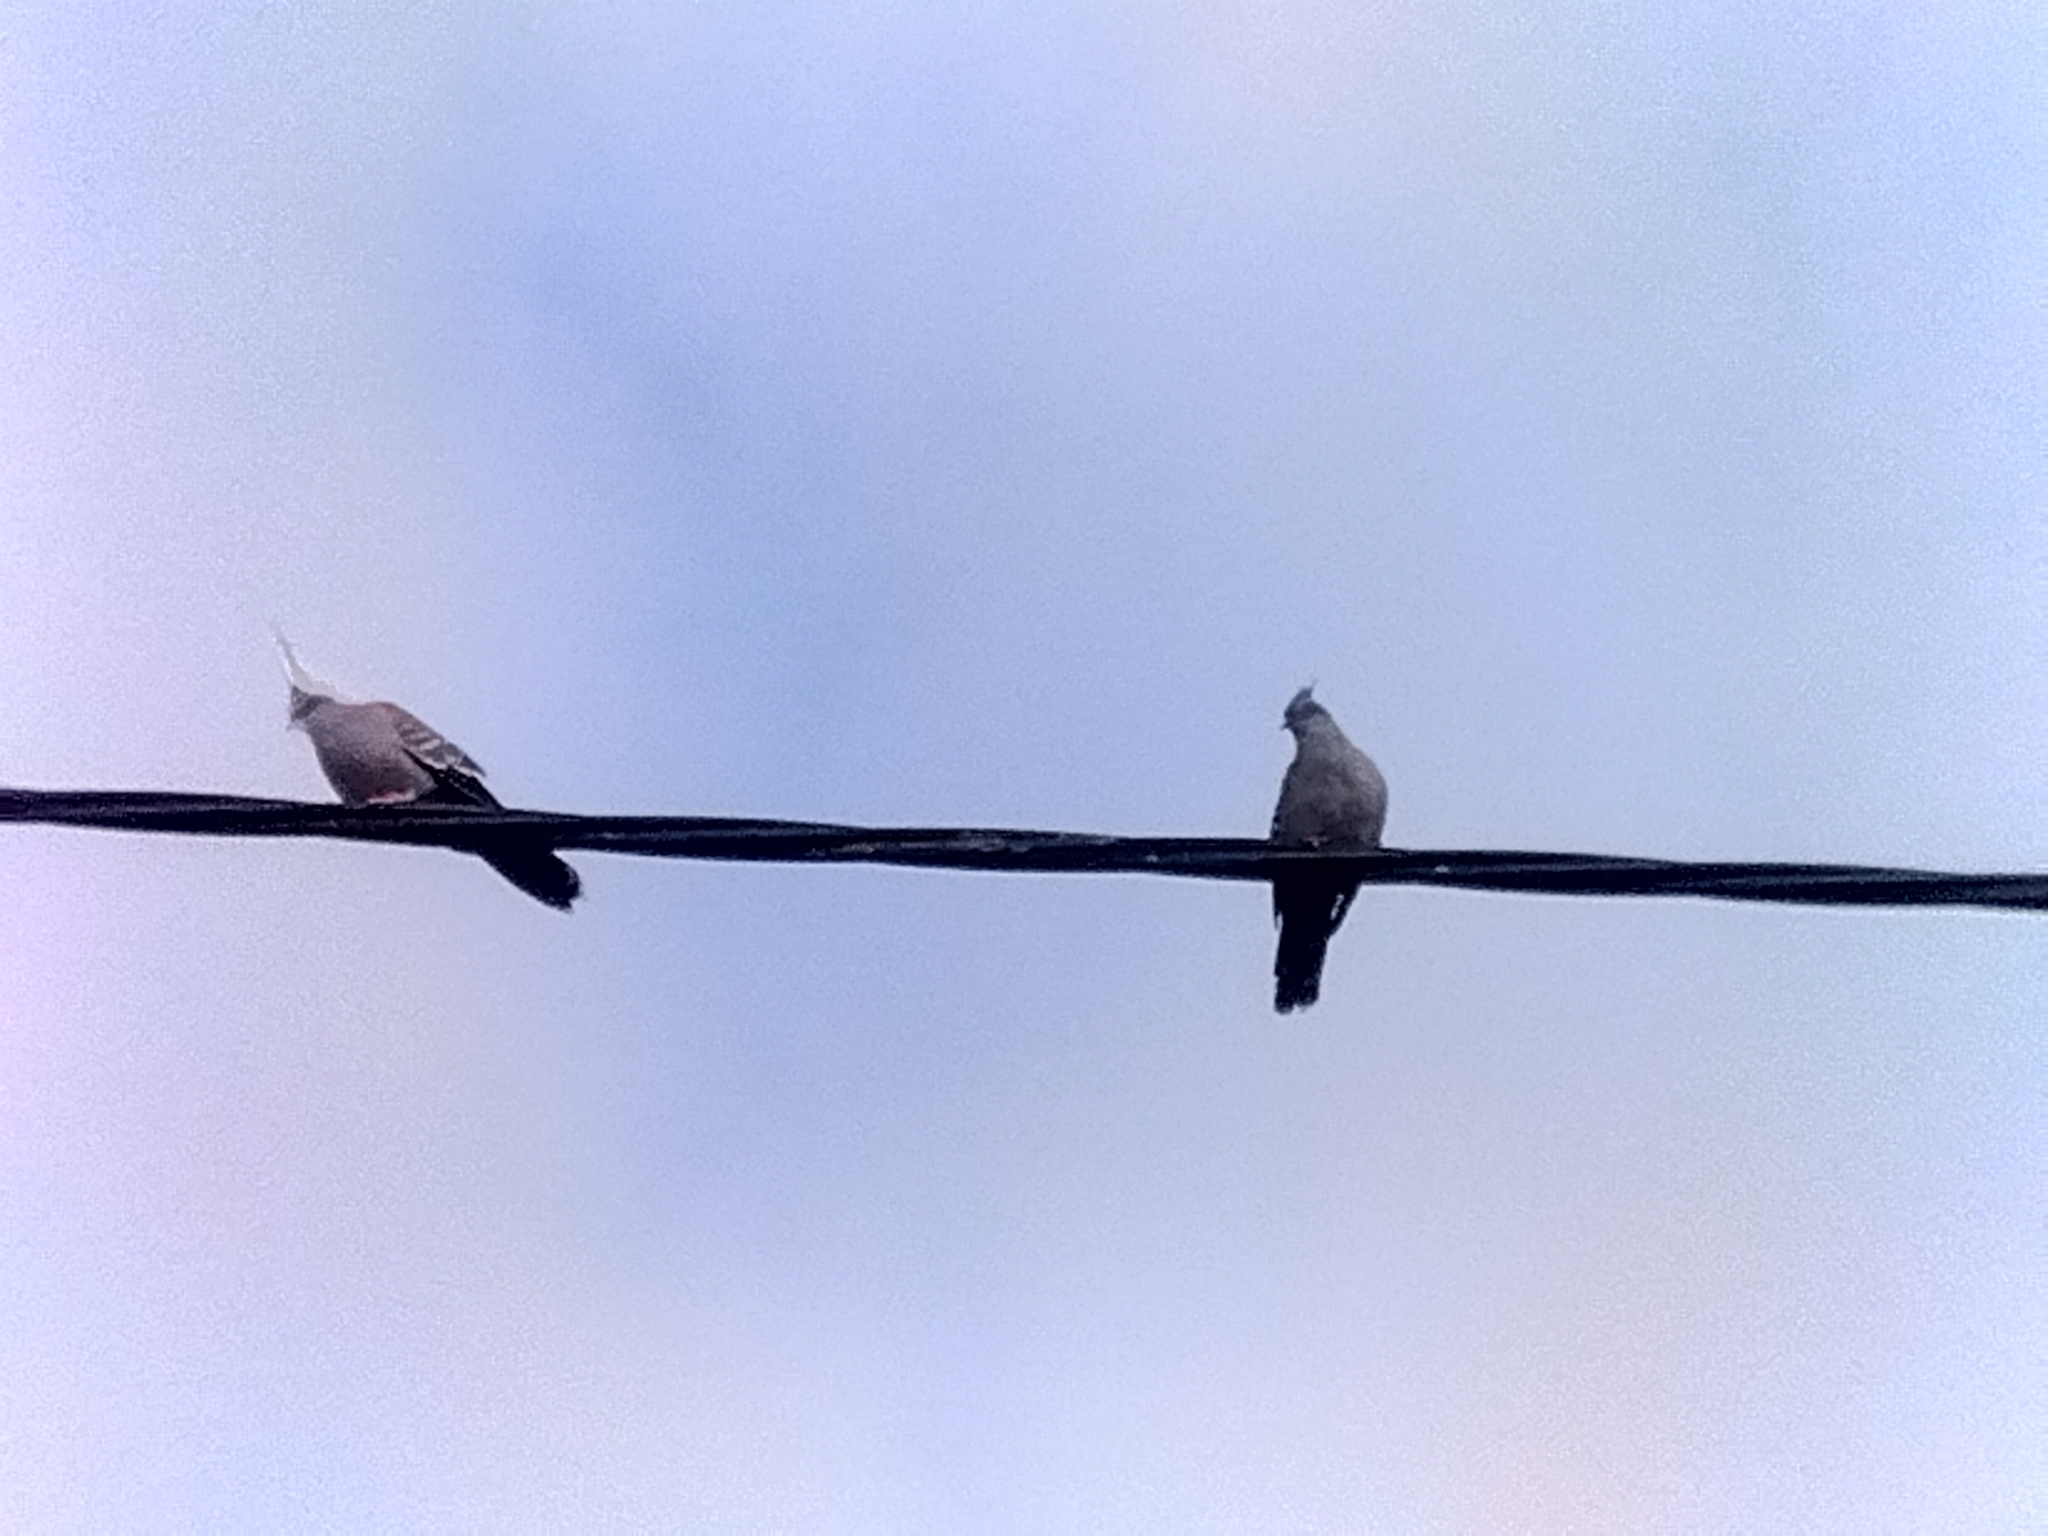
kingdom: Animalia
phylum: Chordata
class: Aves
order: Columbiformes
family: Columbidae
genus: Ocyphaps
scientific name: Ocyphaps lophotes
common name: Crested pigeon
